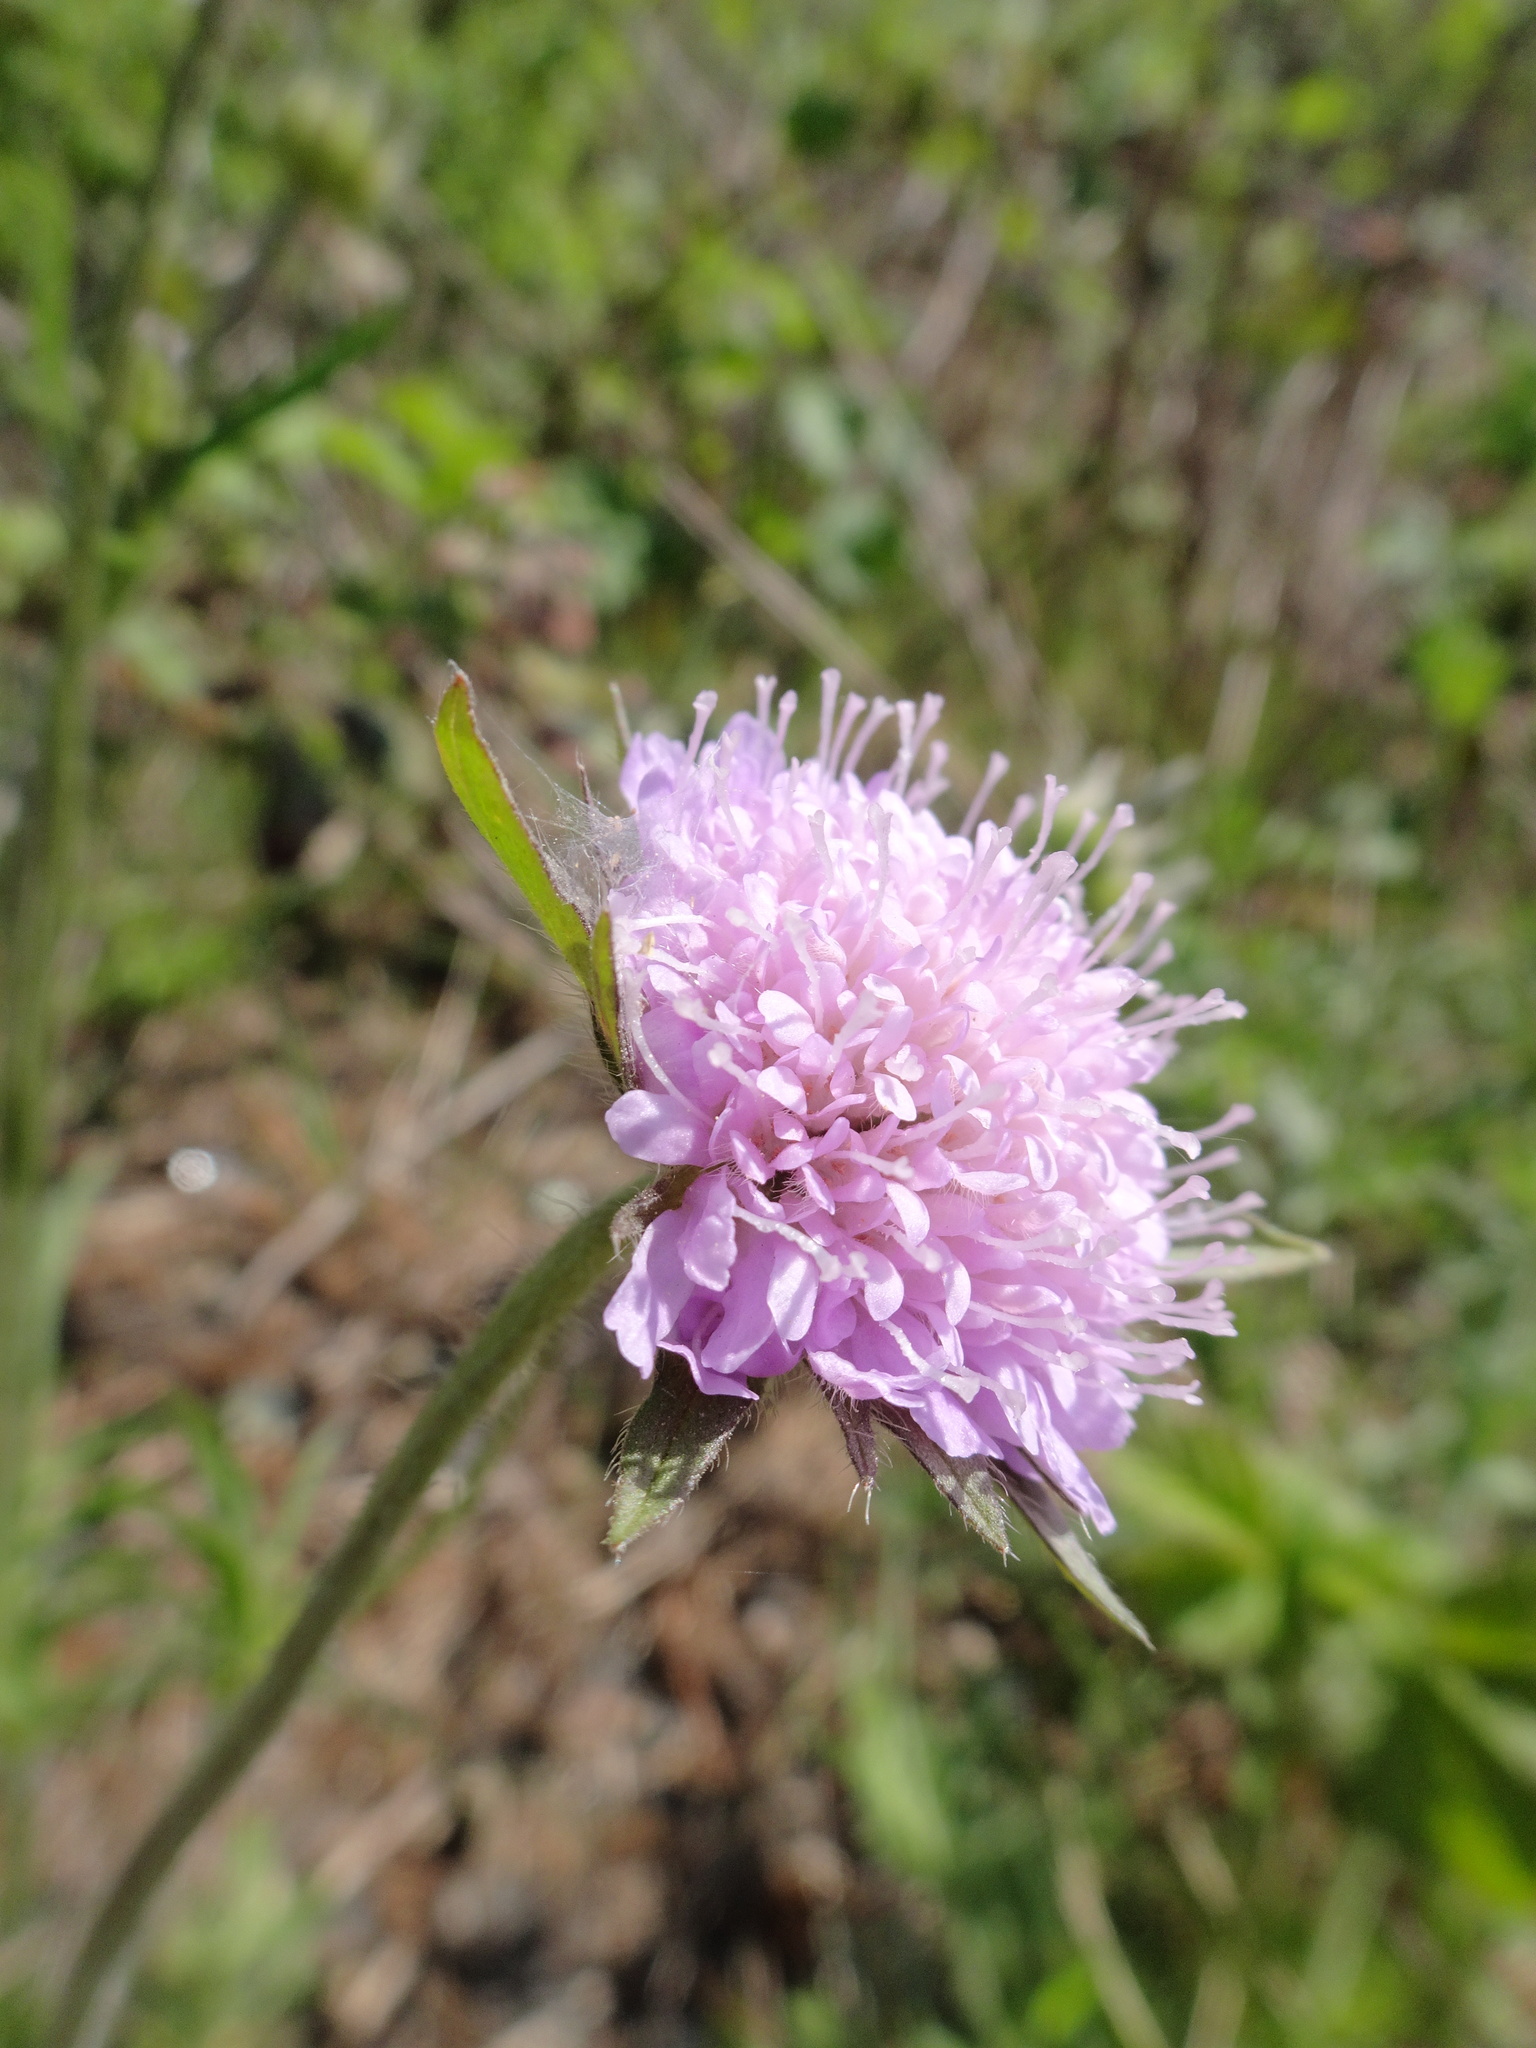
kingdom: Plantae
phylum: Tracheophyta
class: Magnoliopsida
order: Dipsacales
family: Caprifoliaceae
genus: Knautia
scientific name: Knautia arvensis
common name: Field scabiosa
